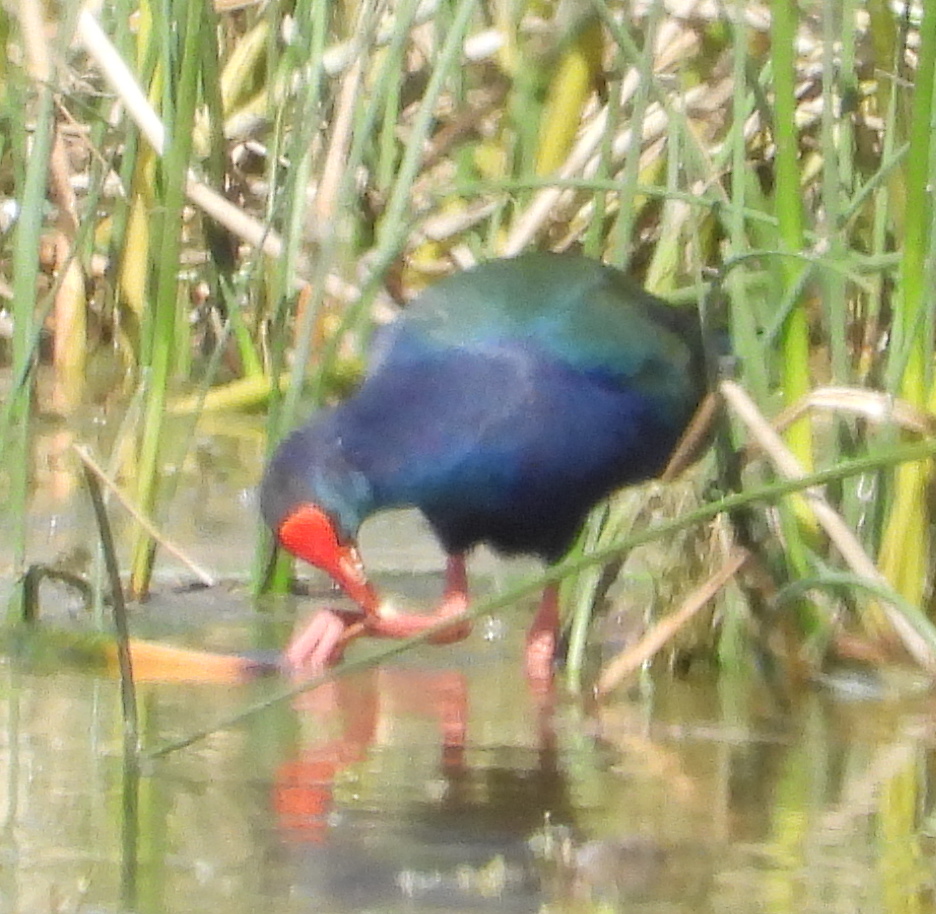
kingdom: Animalia
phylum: Chordata
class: Aves
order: Gruiformes
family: Rallidae
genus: Porphyrio
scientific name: Porphyrio porphyrio
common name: Purple swamphen
